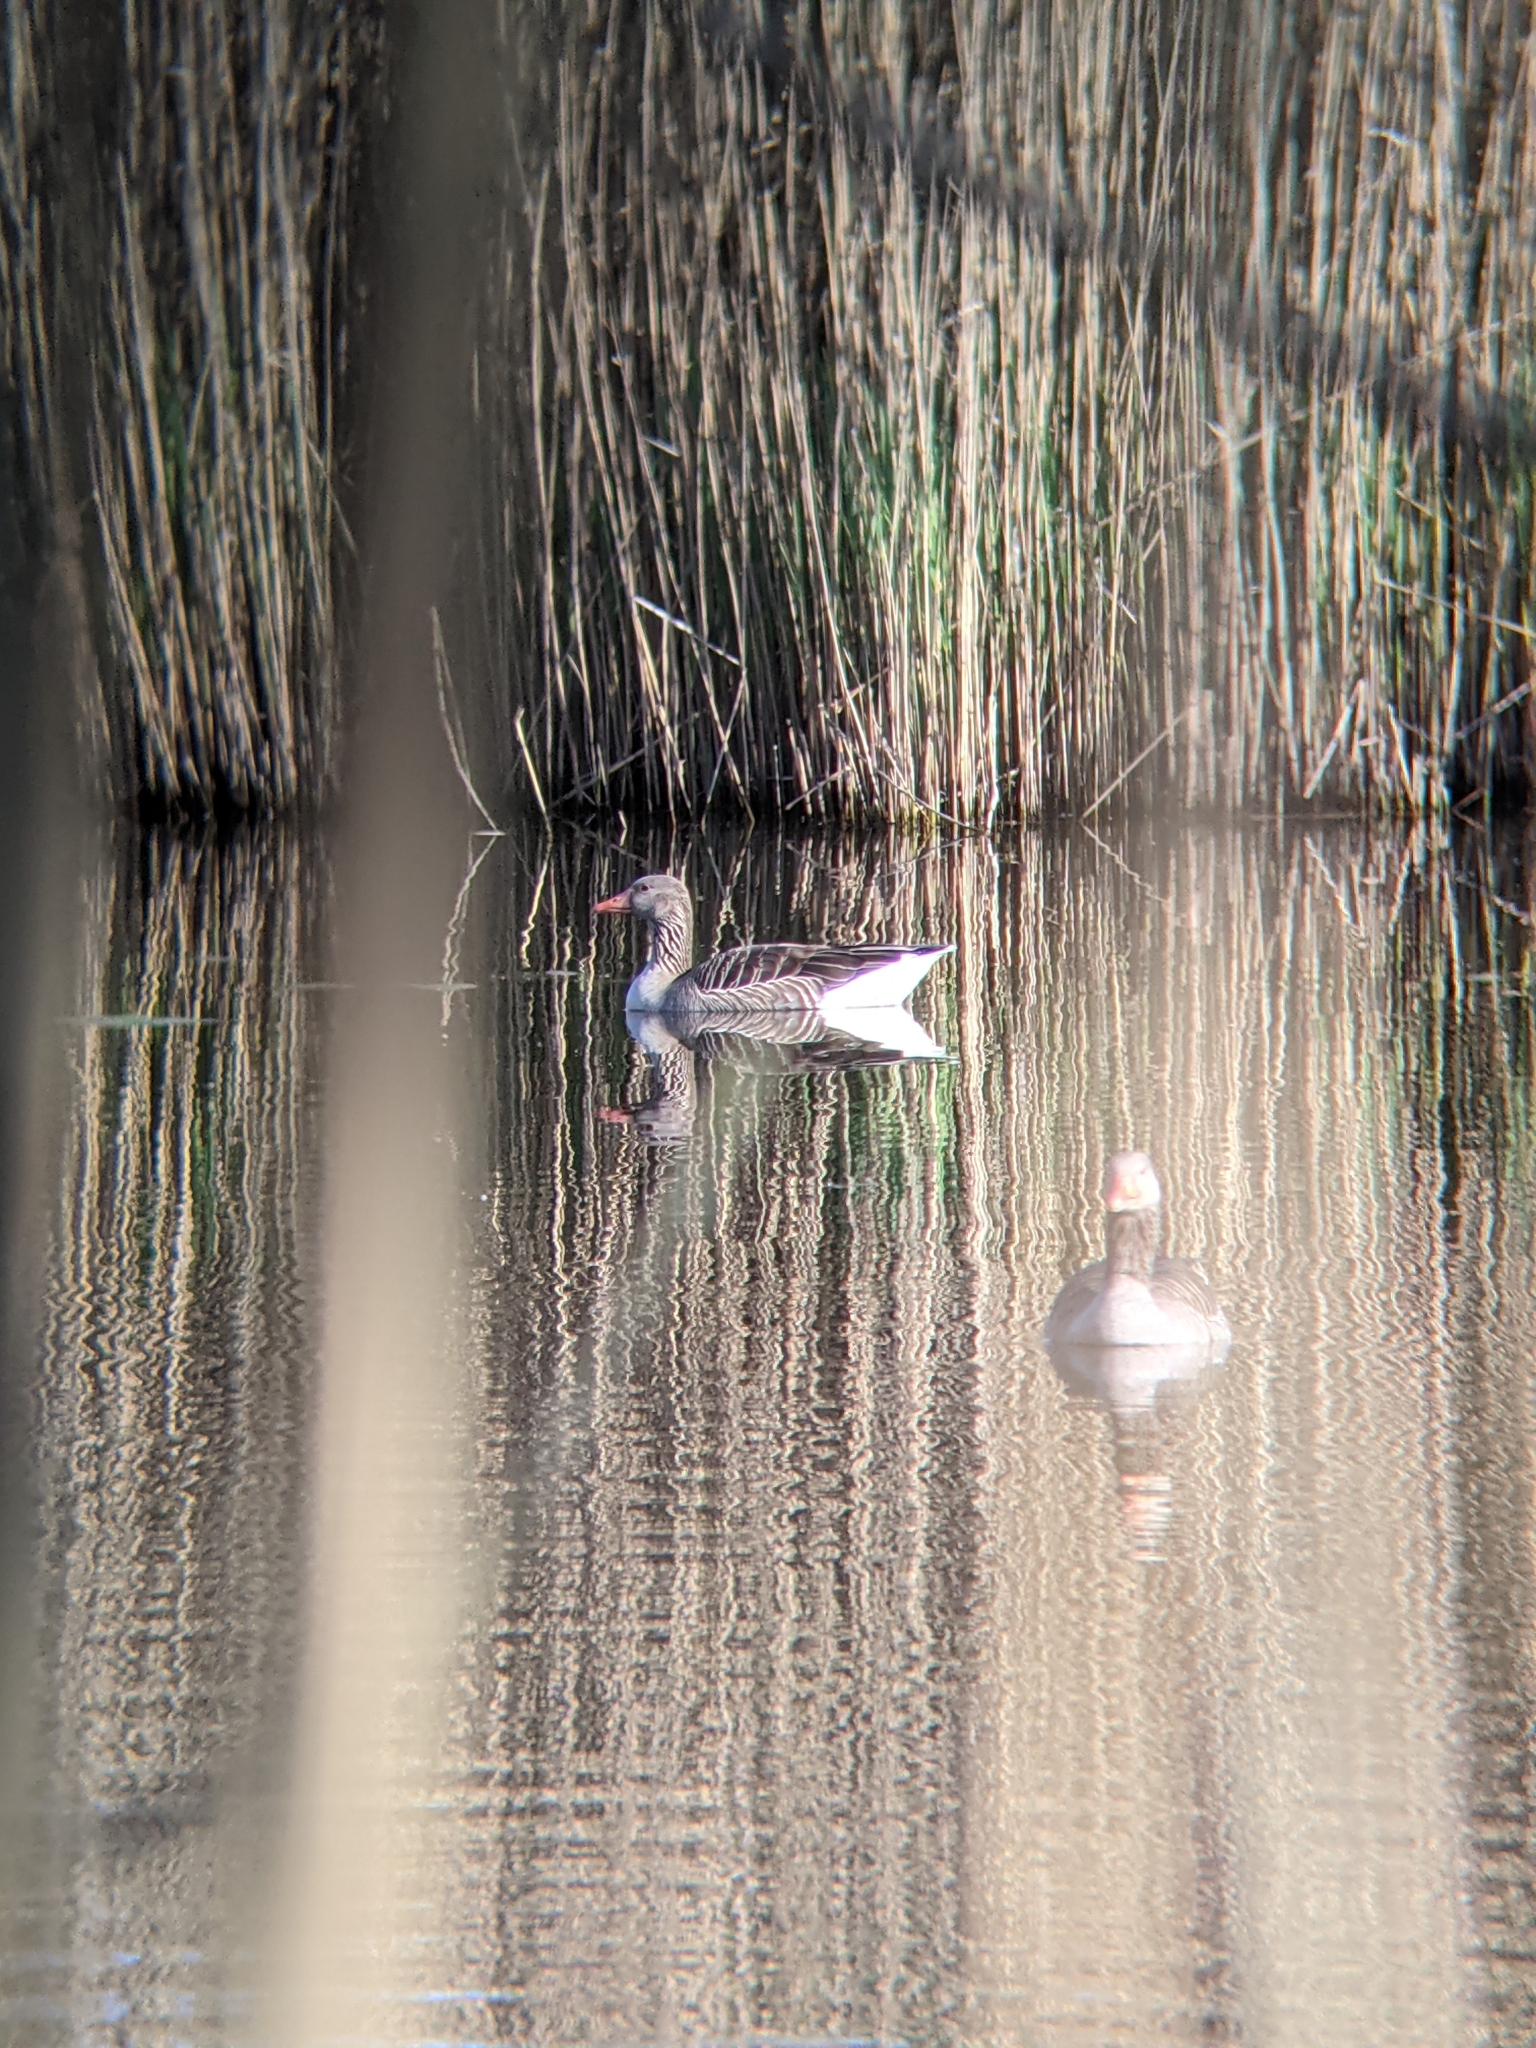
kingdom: Animalia
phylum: Chordata
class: Aves
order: Anseriformes
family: Anatidae
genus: Anser
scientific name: Anser anser
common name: Greylag goose
